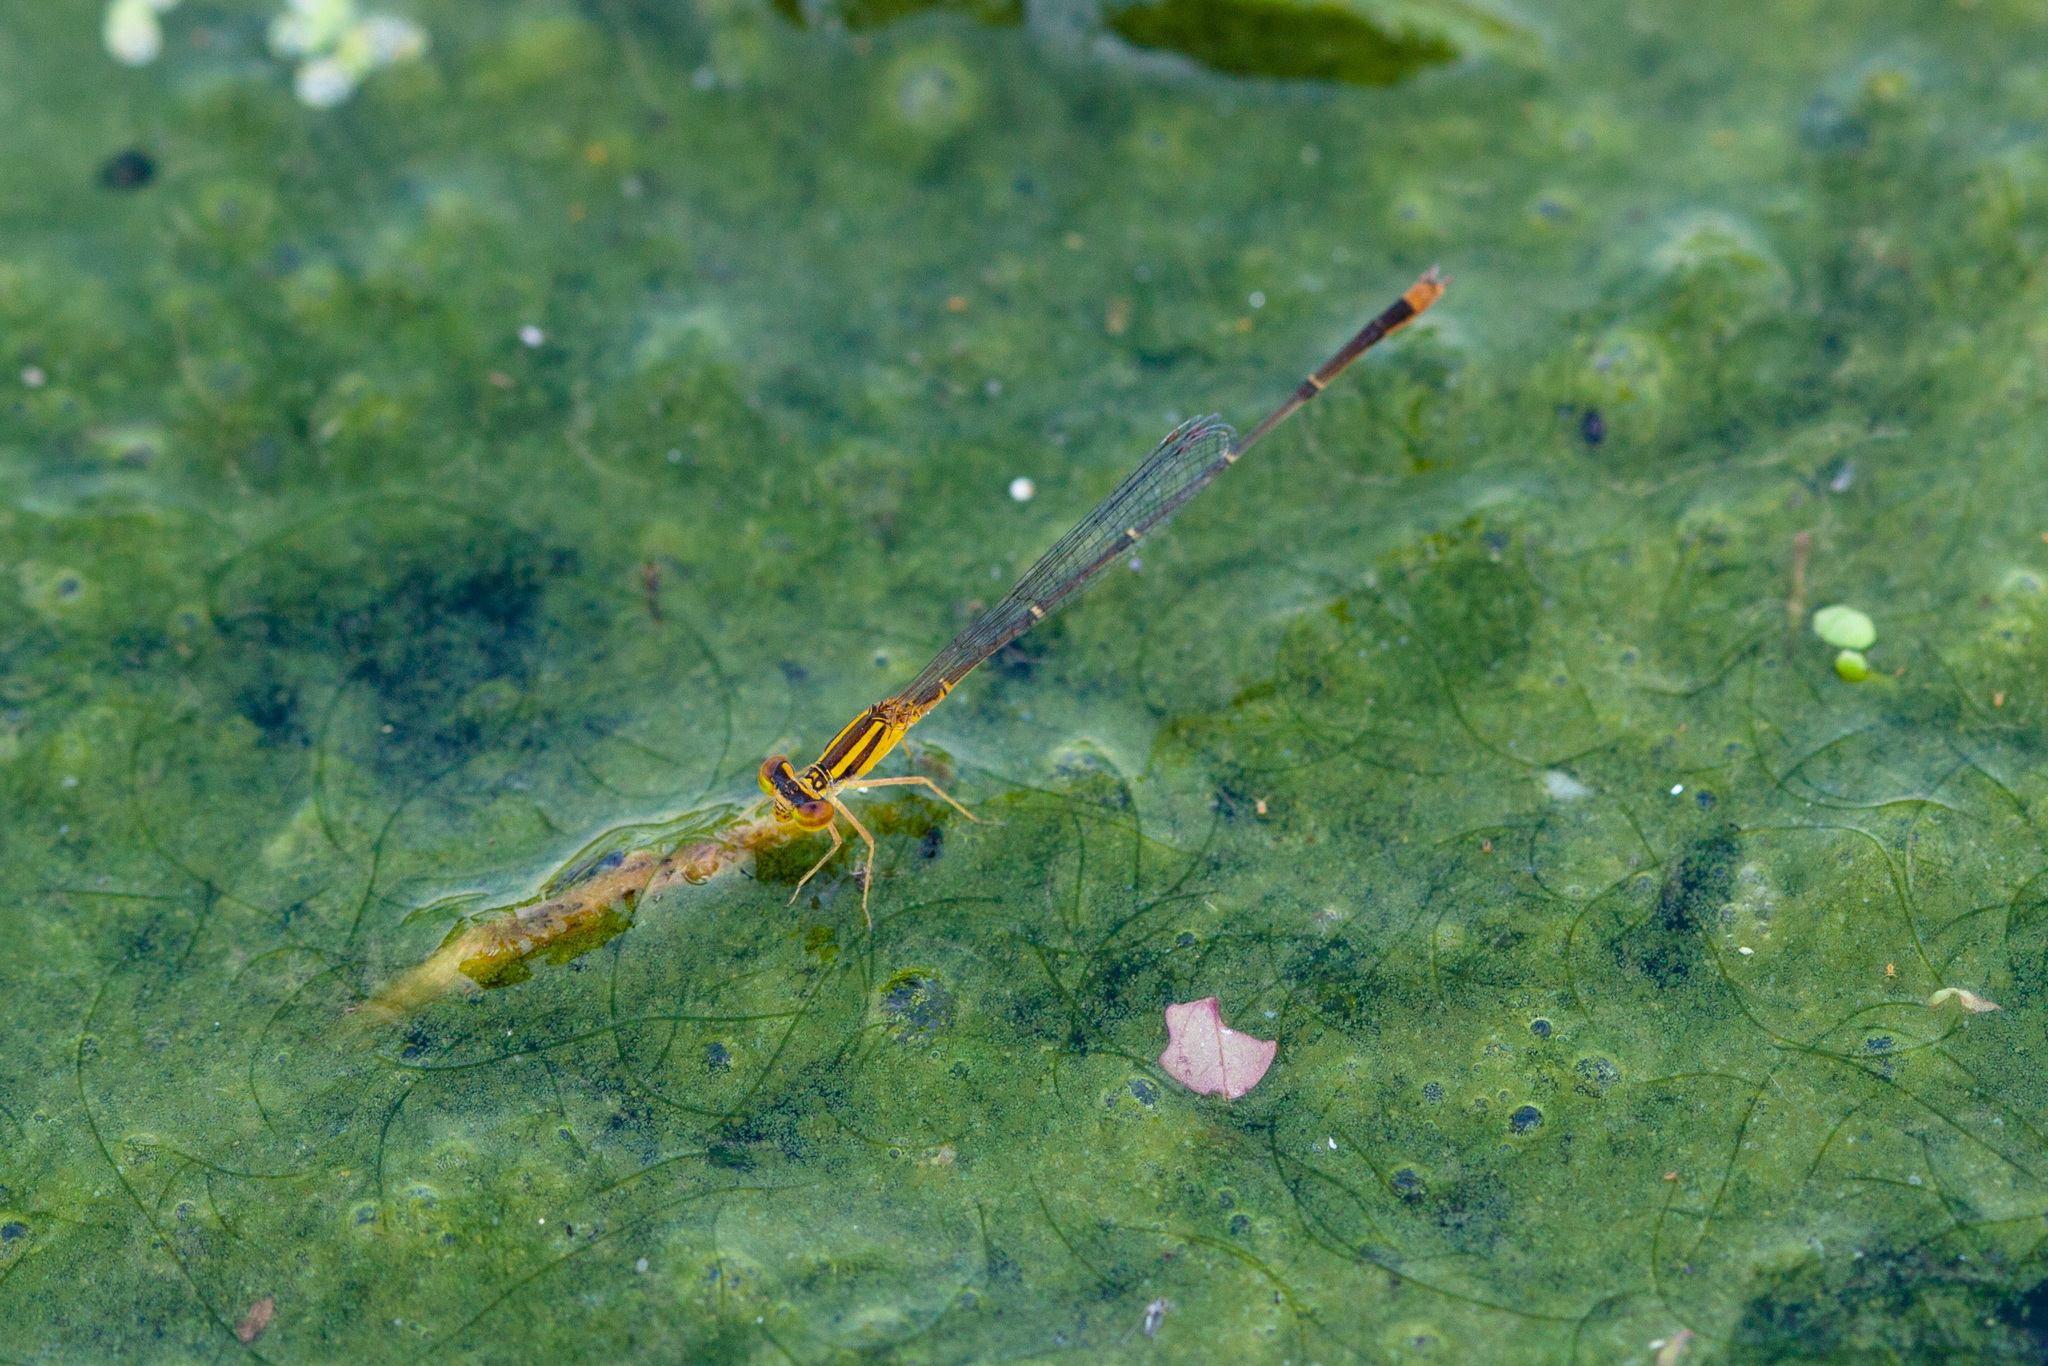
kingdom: Animalia
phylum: Arthropoda
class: Insecta
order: Odonata
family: Coenagrionidae
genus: Enallagma
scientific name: Enallagma signatum
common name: Orange bluet
